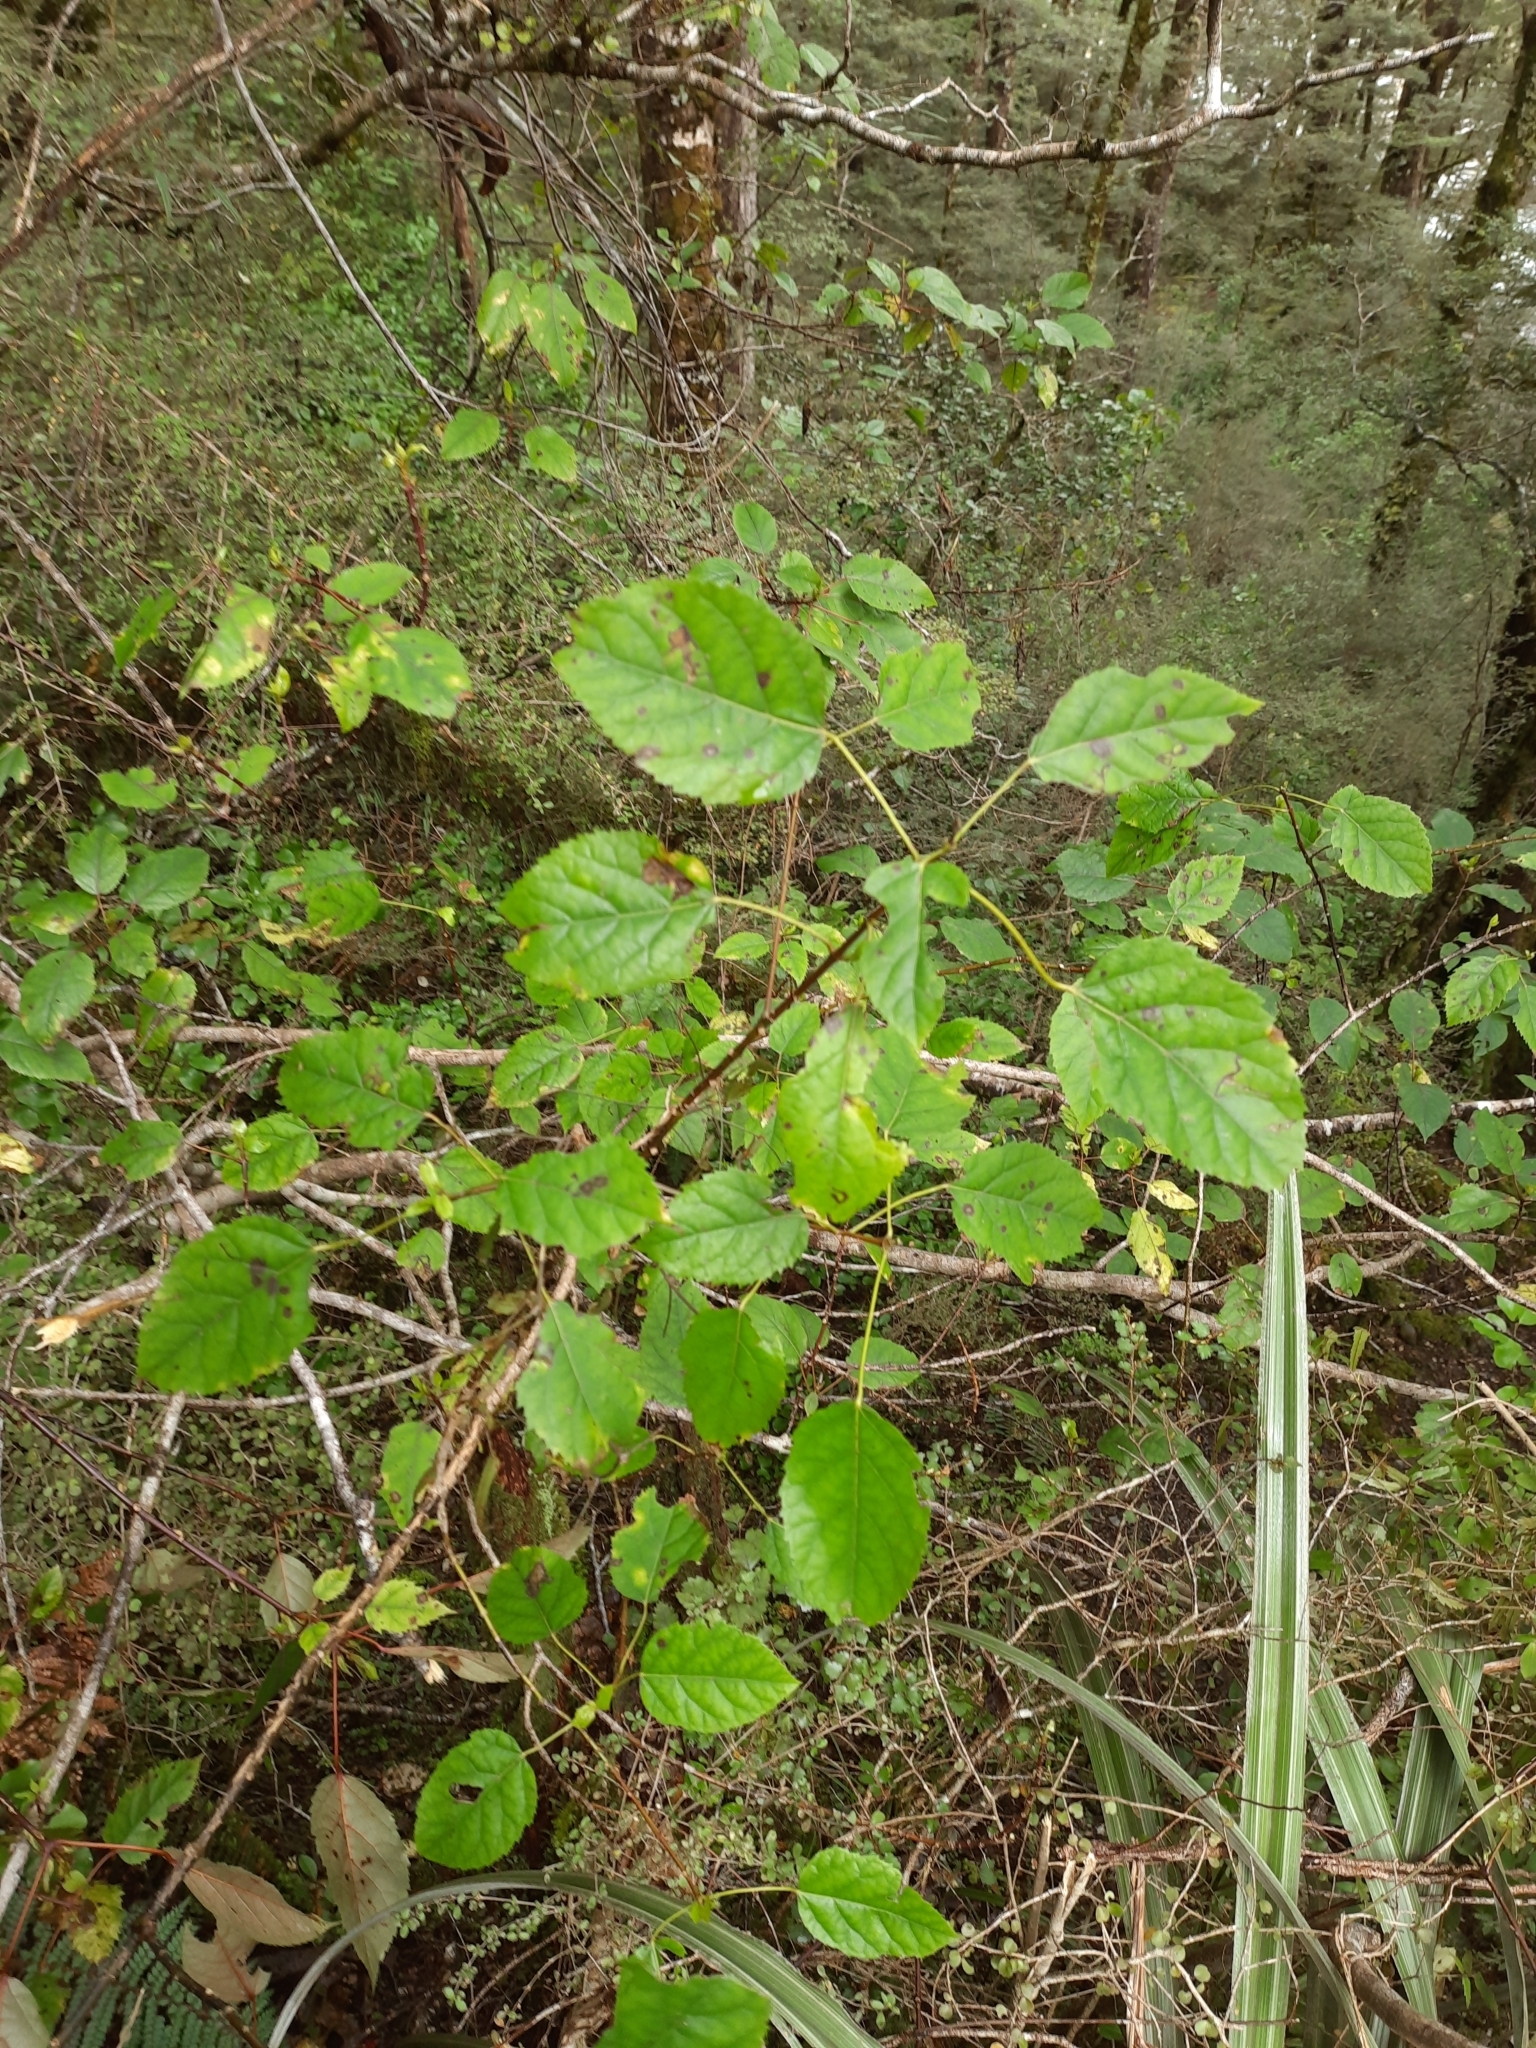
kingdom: Plantae
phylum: Tracheophyta
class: Magnoliopsida
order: Oxalidales
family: Elaeocarpaceae
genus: Aristotelia
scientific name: Aristotelia serrata
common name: New zealand wineberry
